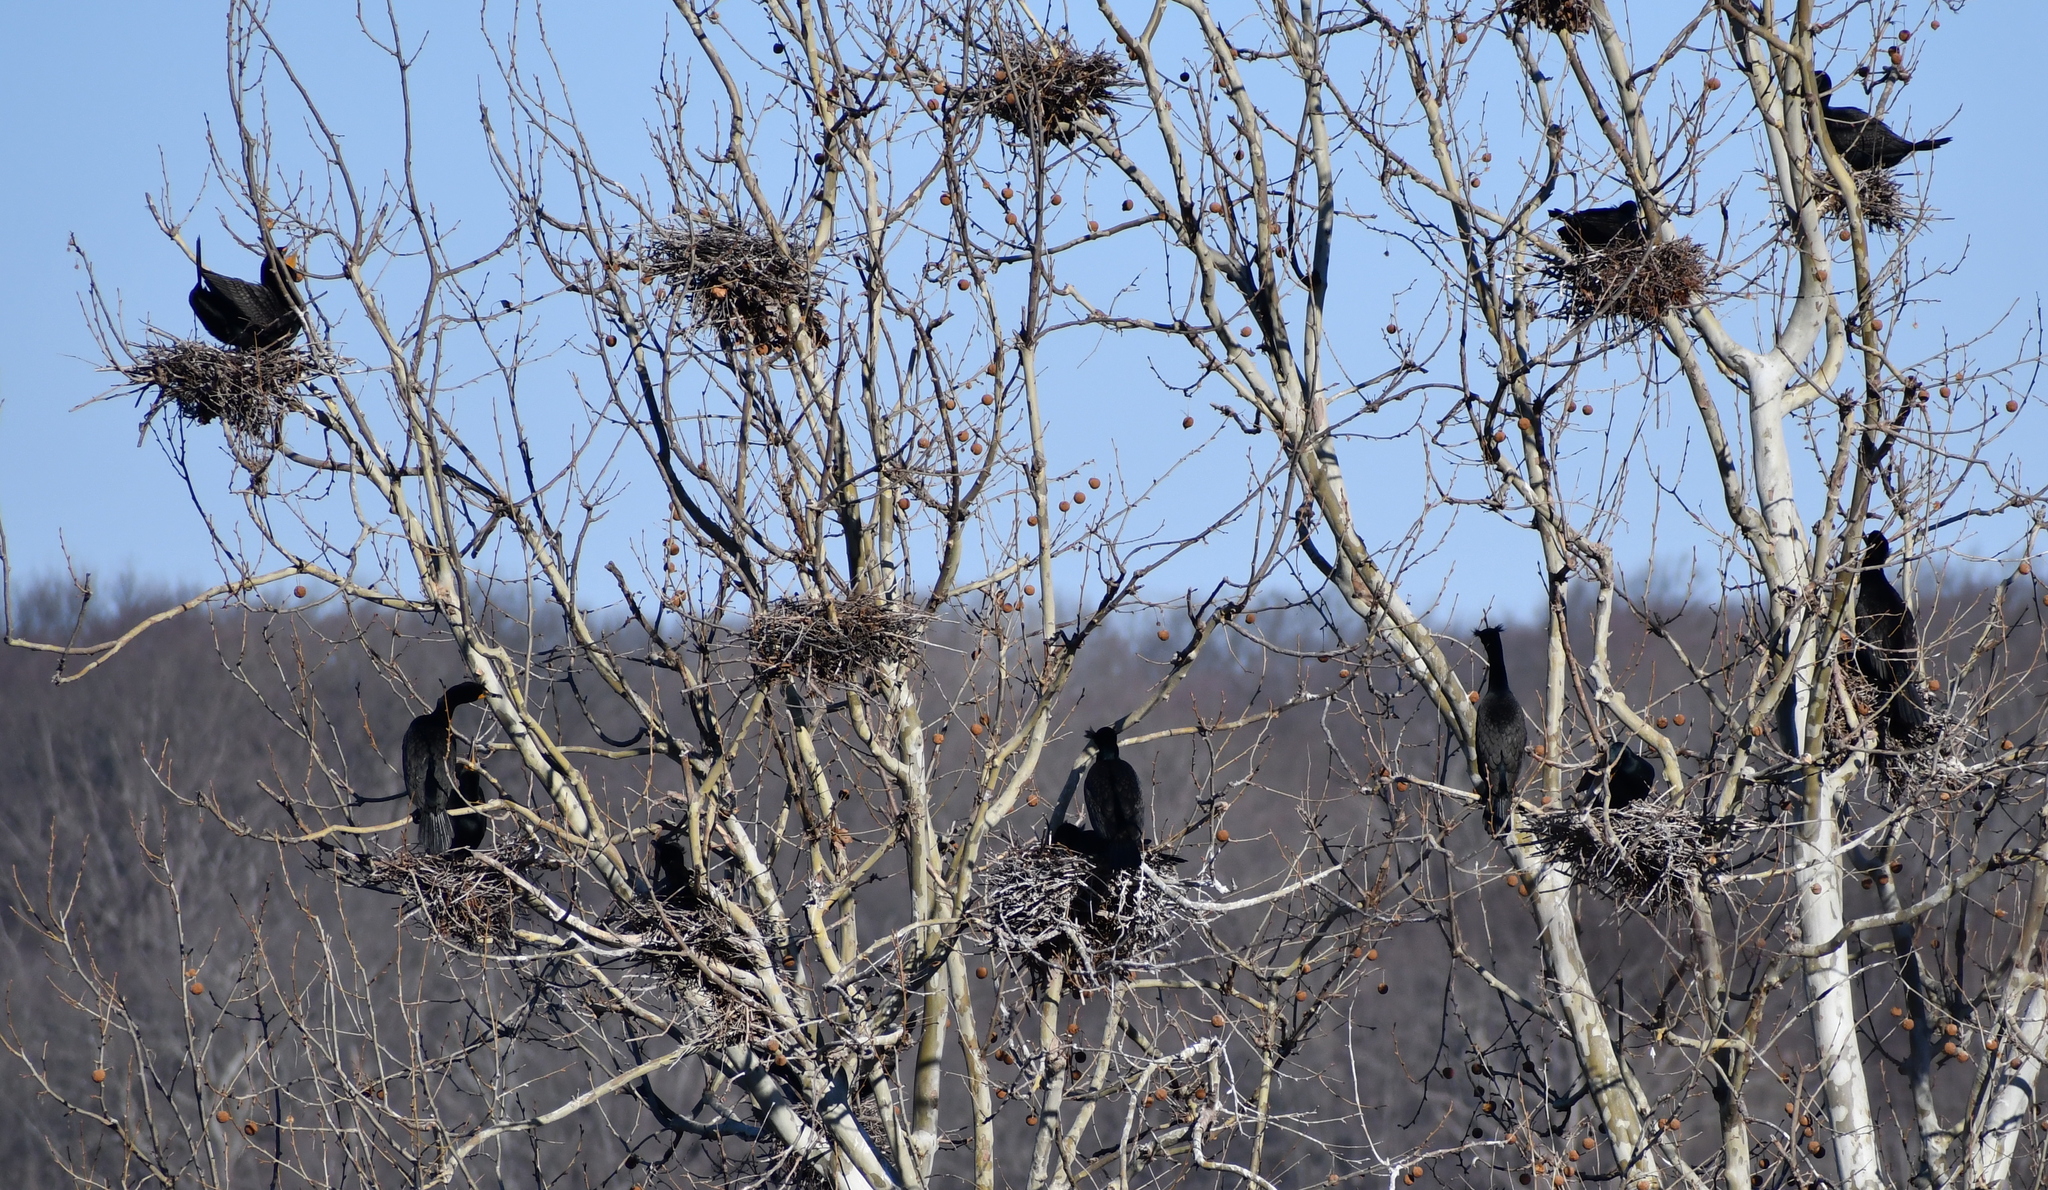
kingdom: Animalia
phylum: Chordata
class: Aves
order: Suliformes
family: Phalacrocoracidae
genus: Phalacrocorax
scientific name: Phalacrocorax auritus
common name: Double-crested cormorant
